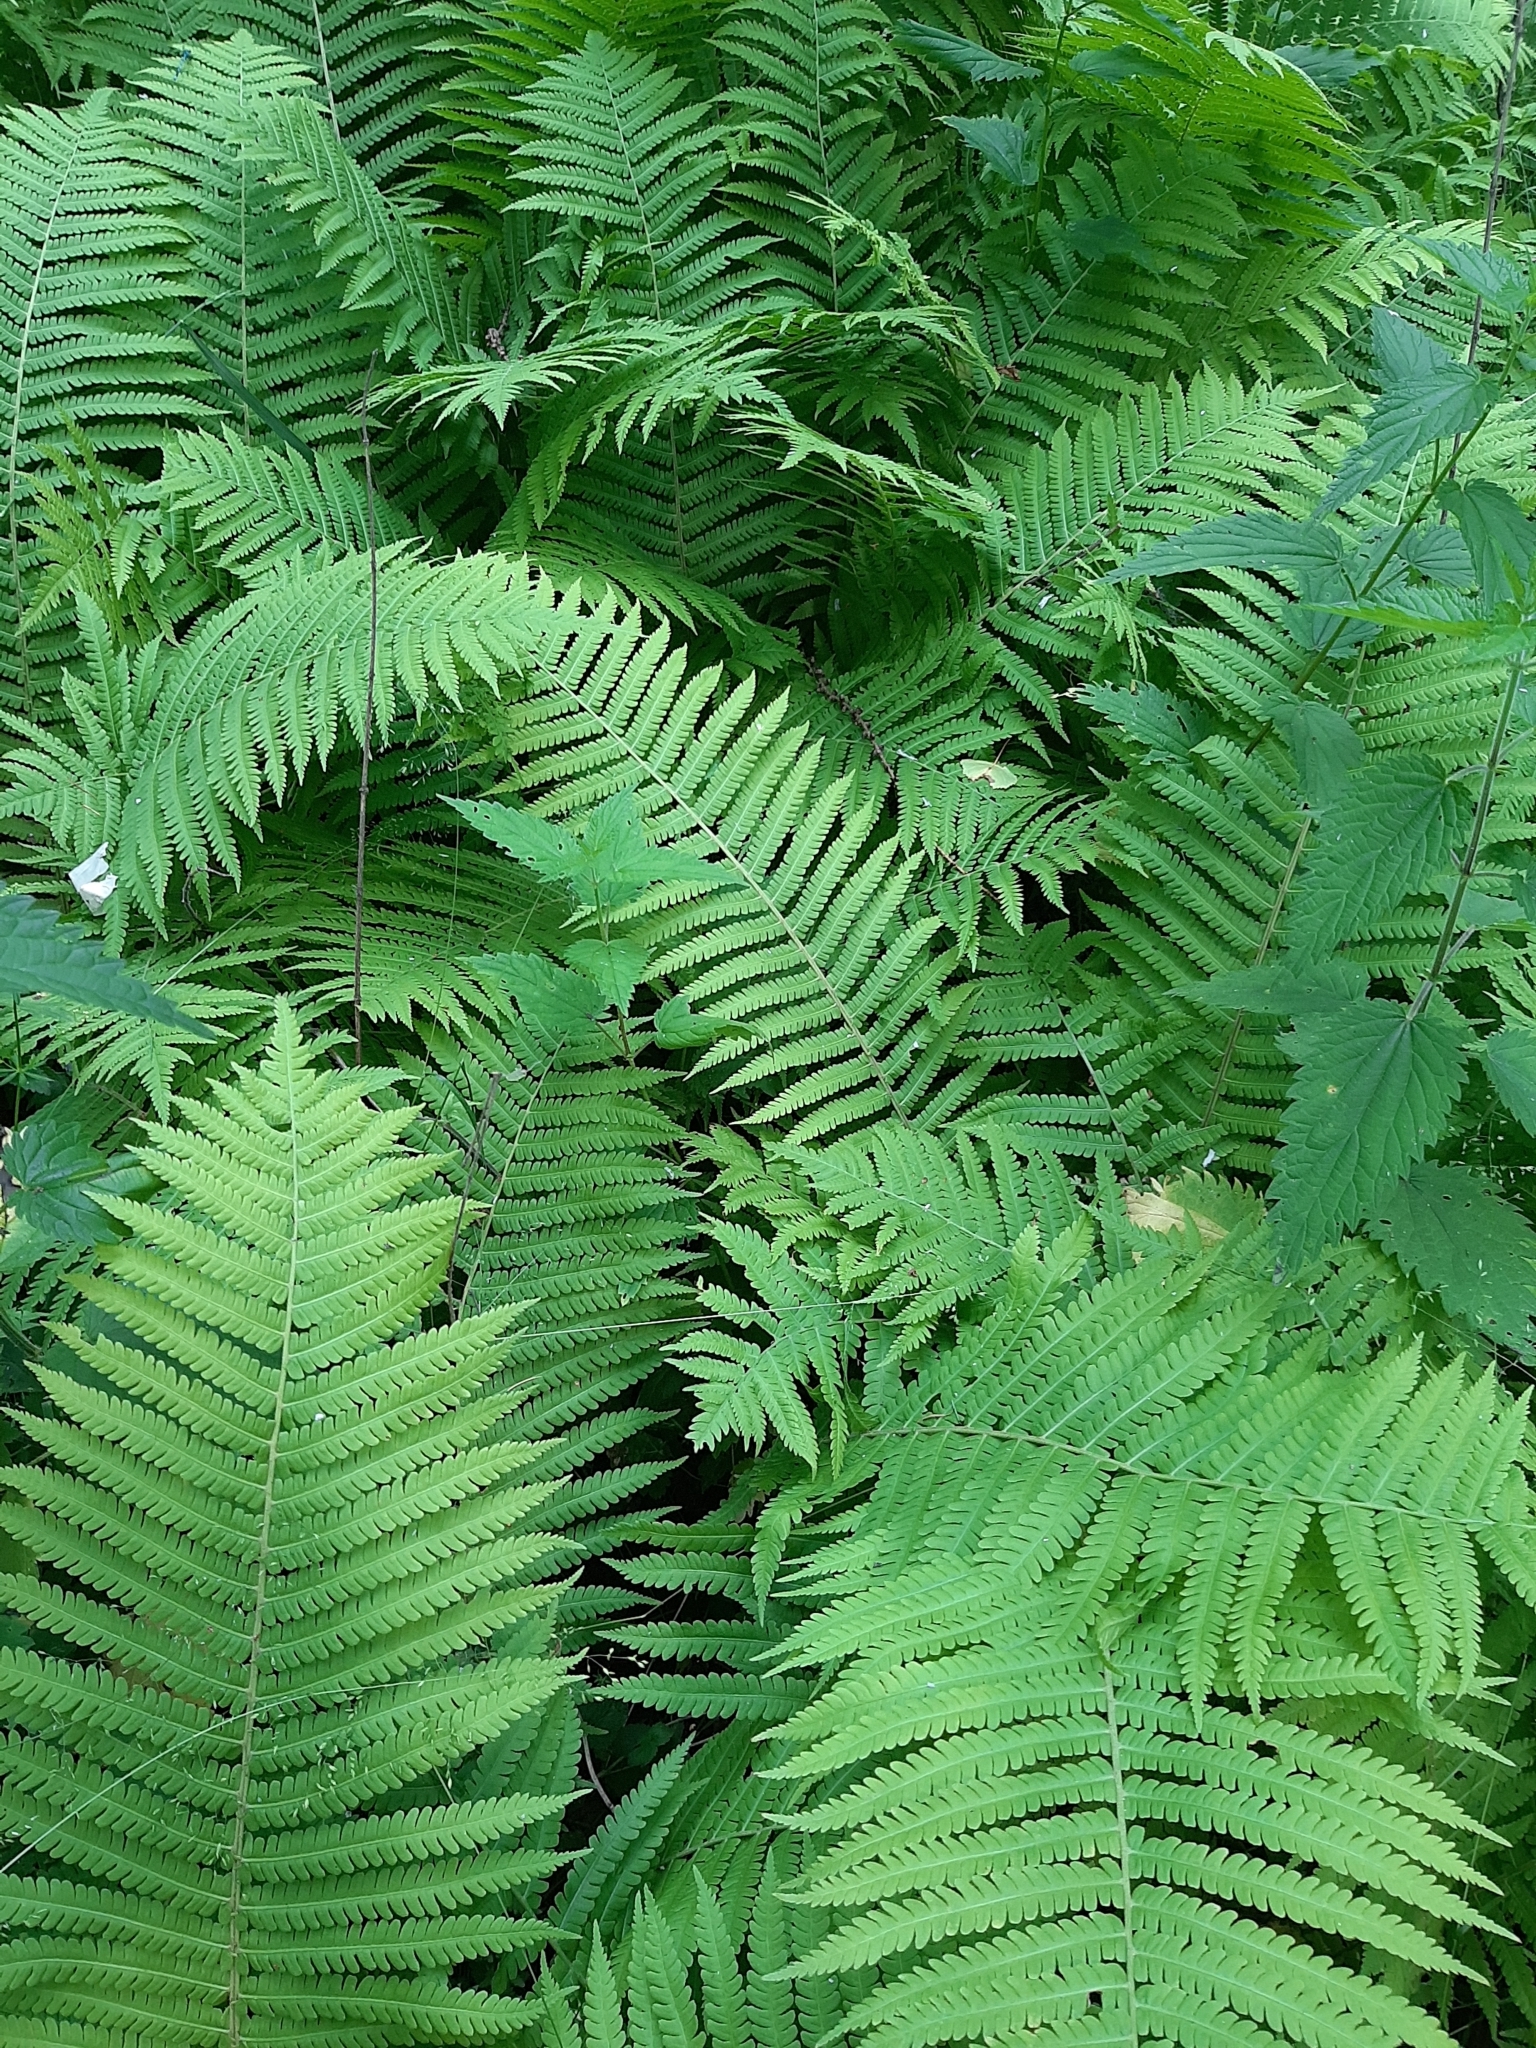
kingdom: Plantae
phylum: Tracheophyta
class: Polypodiopsida
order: Polypodiales
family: Onocleaceae
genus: Matteuccia
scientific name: Matteuccia struthiopteris
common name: Ostrich fern
